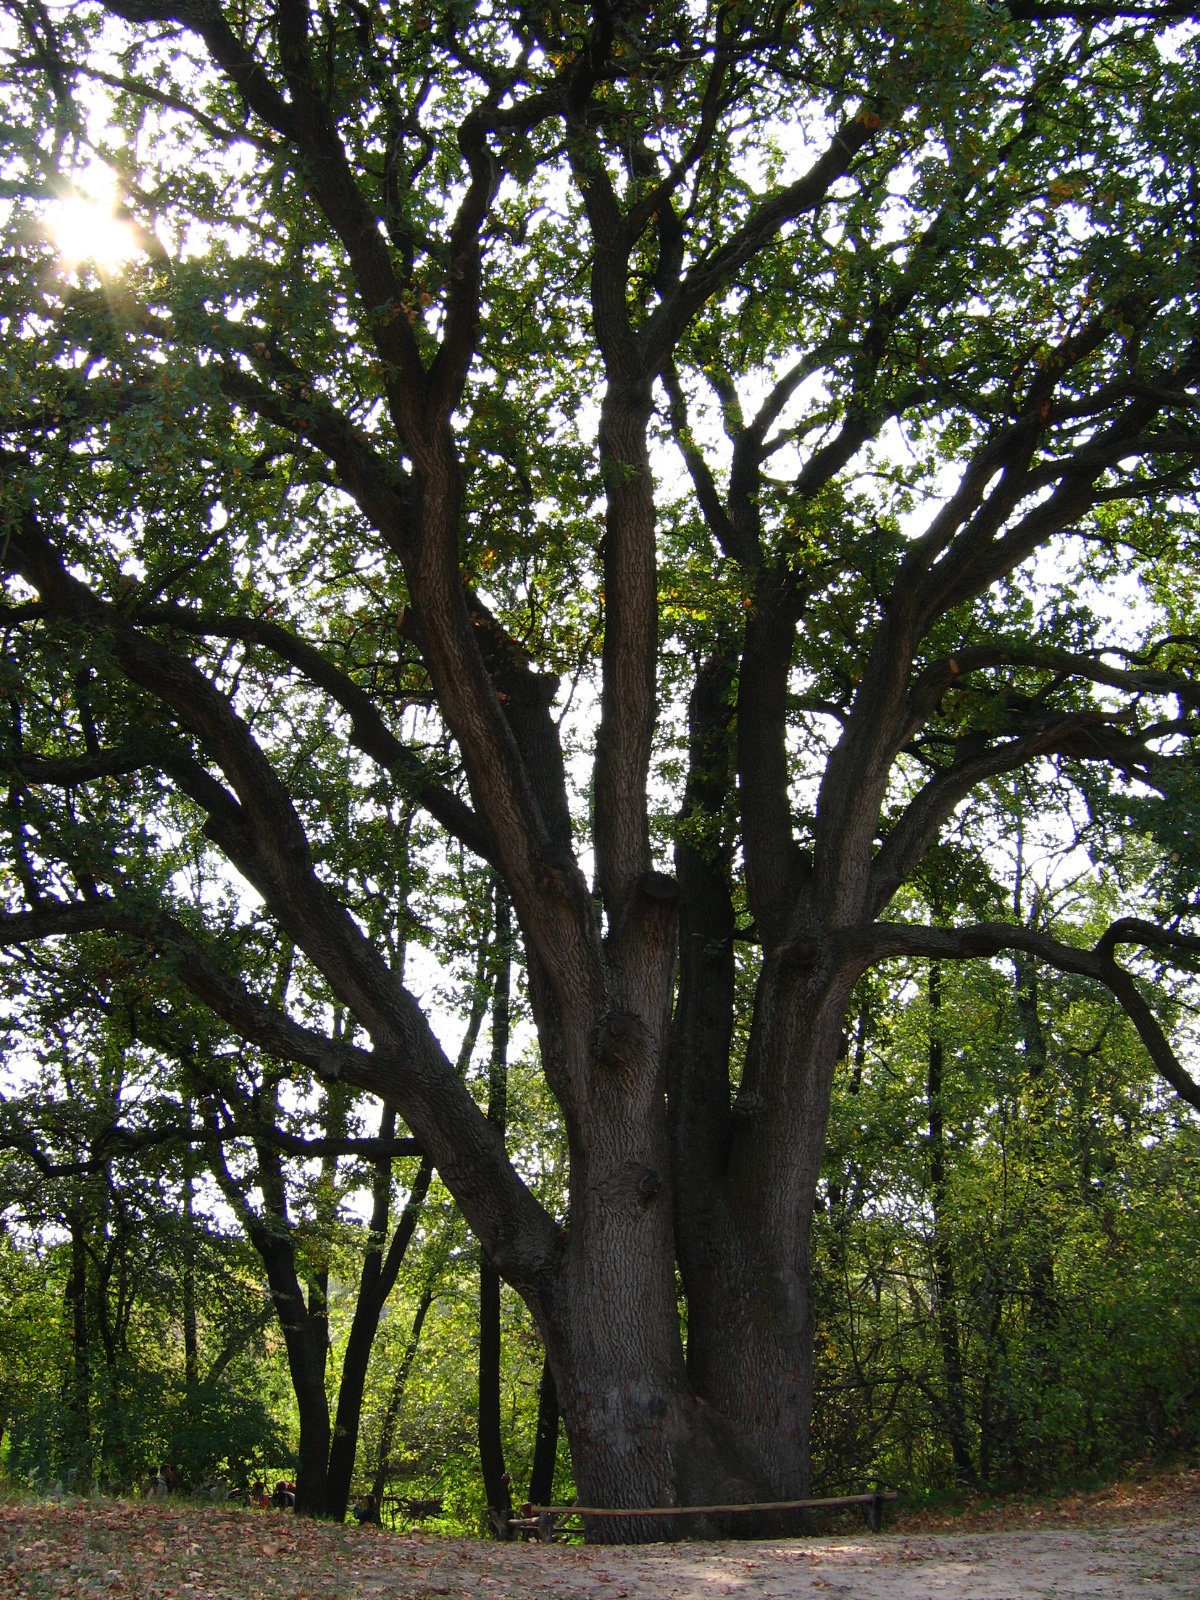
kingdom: Plantae
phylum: Tracheophyta
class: Magnoliopsida
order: Fagales
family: Fagaceae
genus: Quercus
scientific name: Quercus robur
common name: Pedunculate oak
